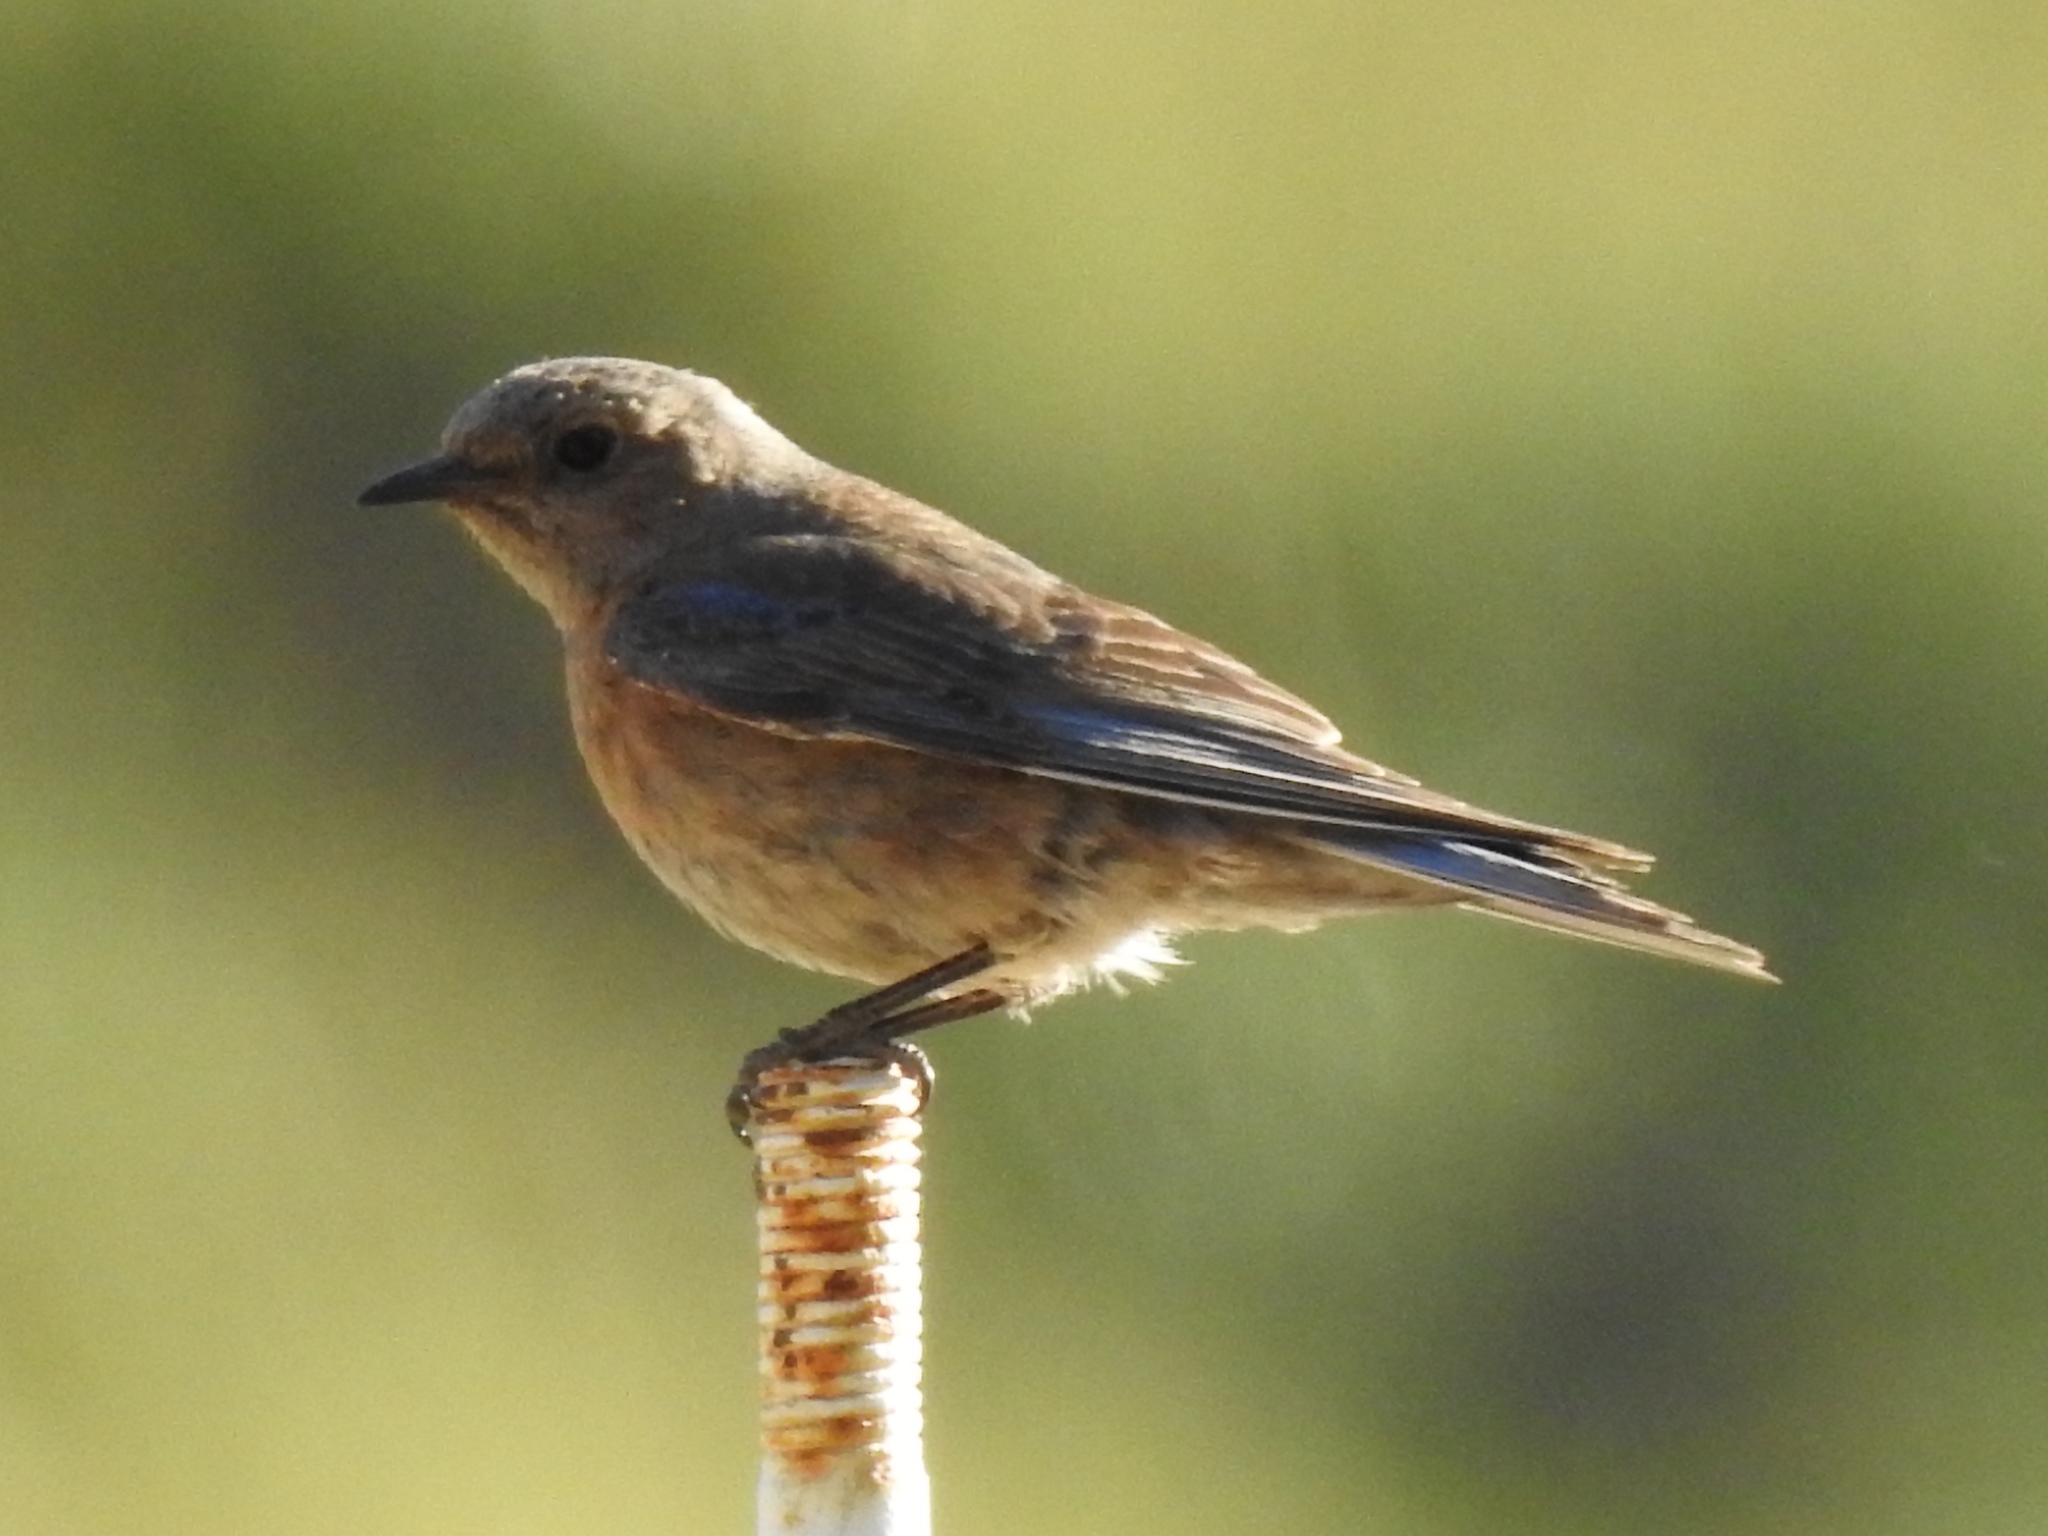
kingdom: Animalia
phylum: Chordata
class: Aves
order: Passeriformes
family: Turdidae
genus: Sialia
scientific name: Sialia mexicana
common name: Western bluebird
